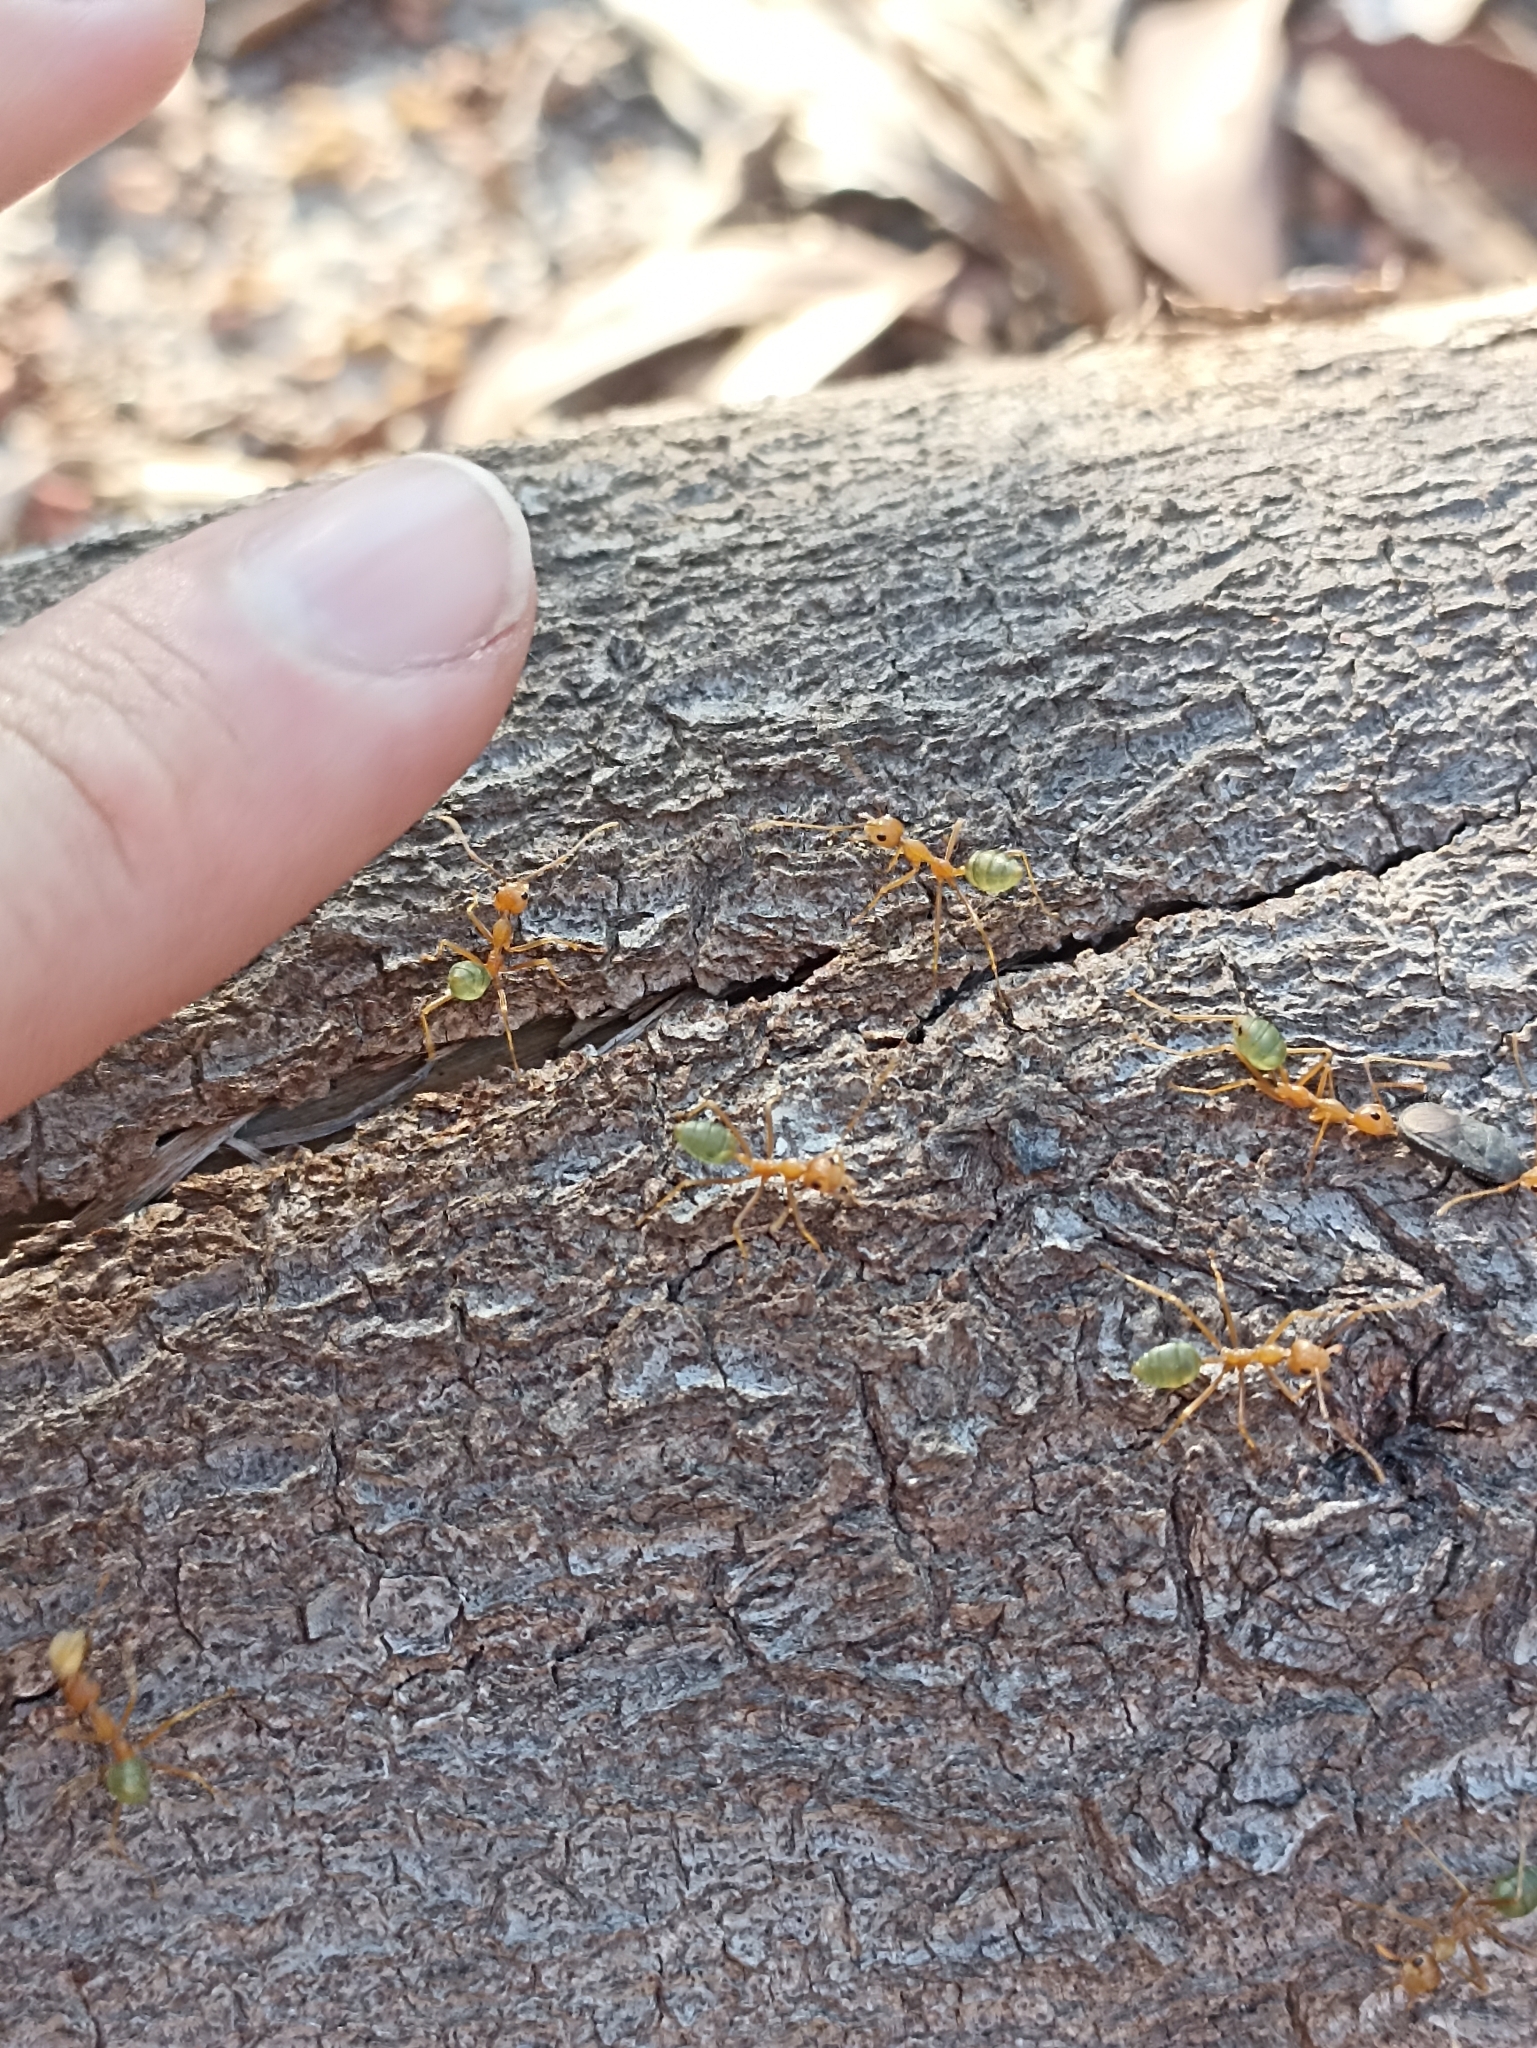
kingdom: Animalia
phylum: Arthropoda
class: Insecta
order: Hymenoptera
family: Formicidae
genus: Oecophylla
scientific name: Oecophylla smaragdina
